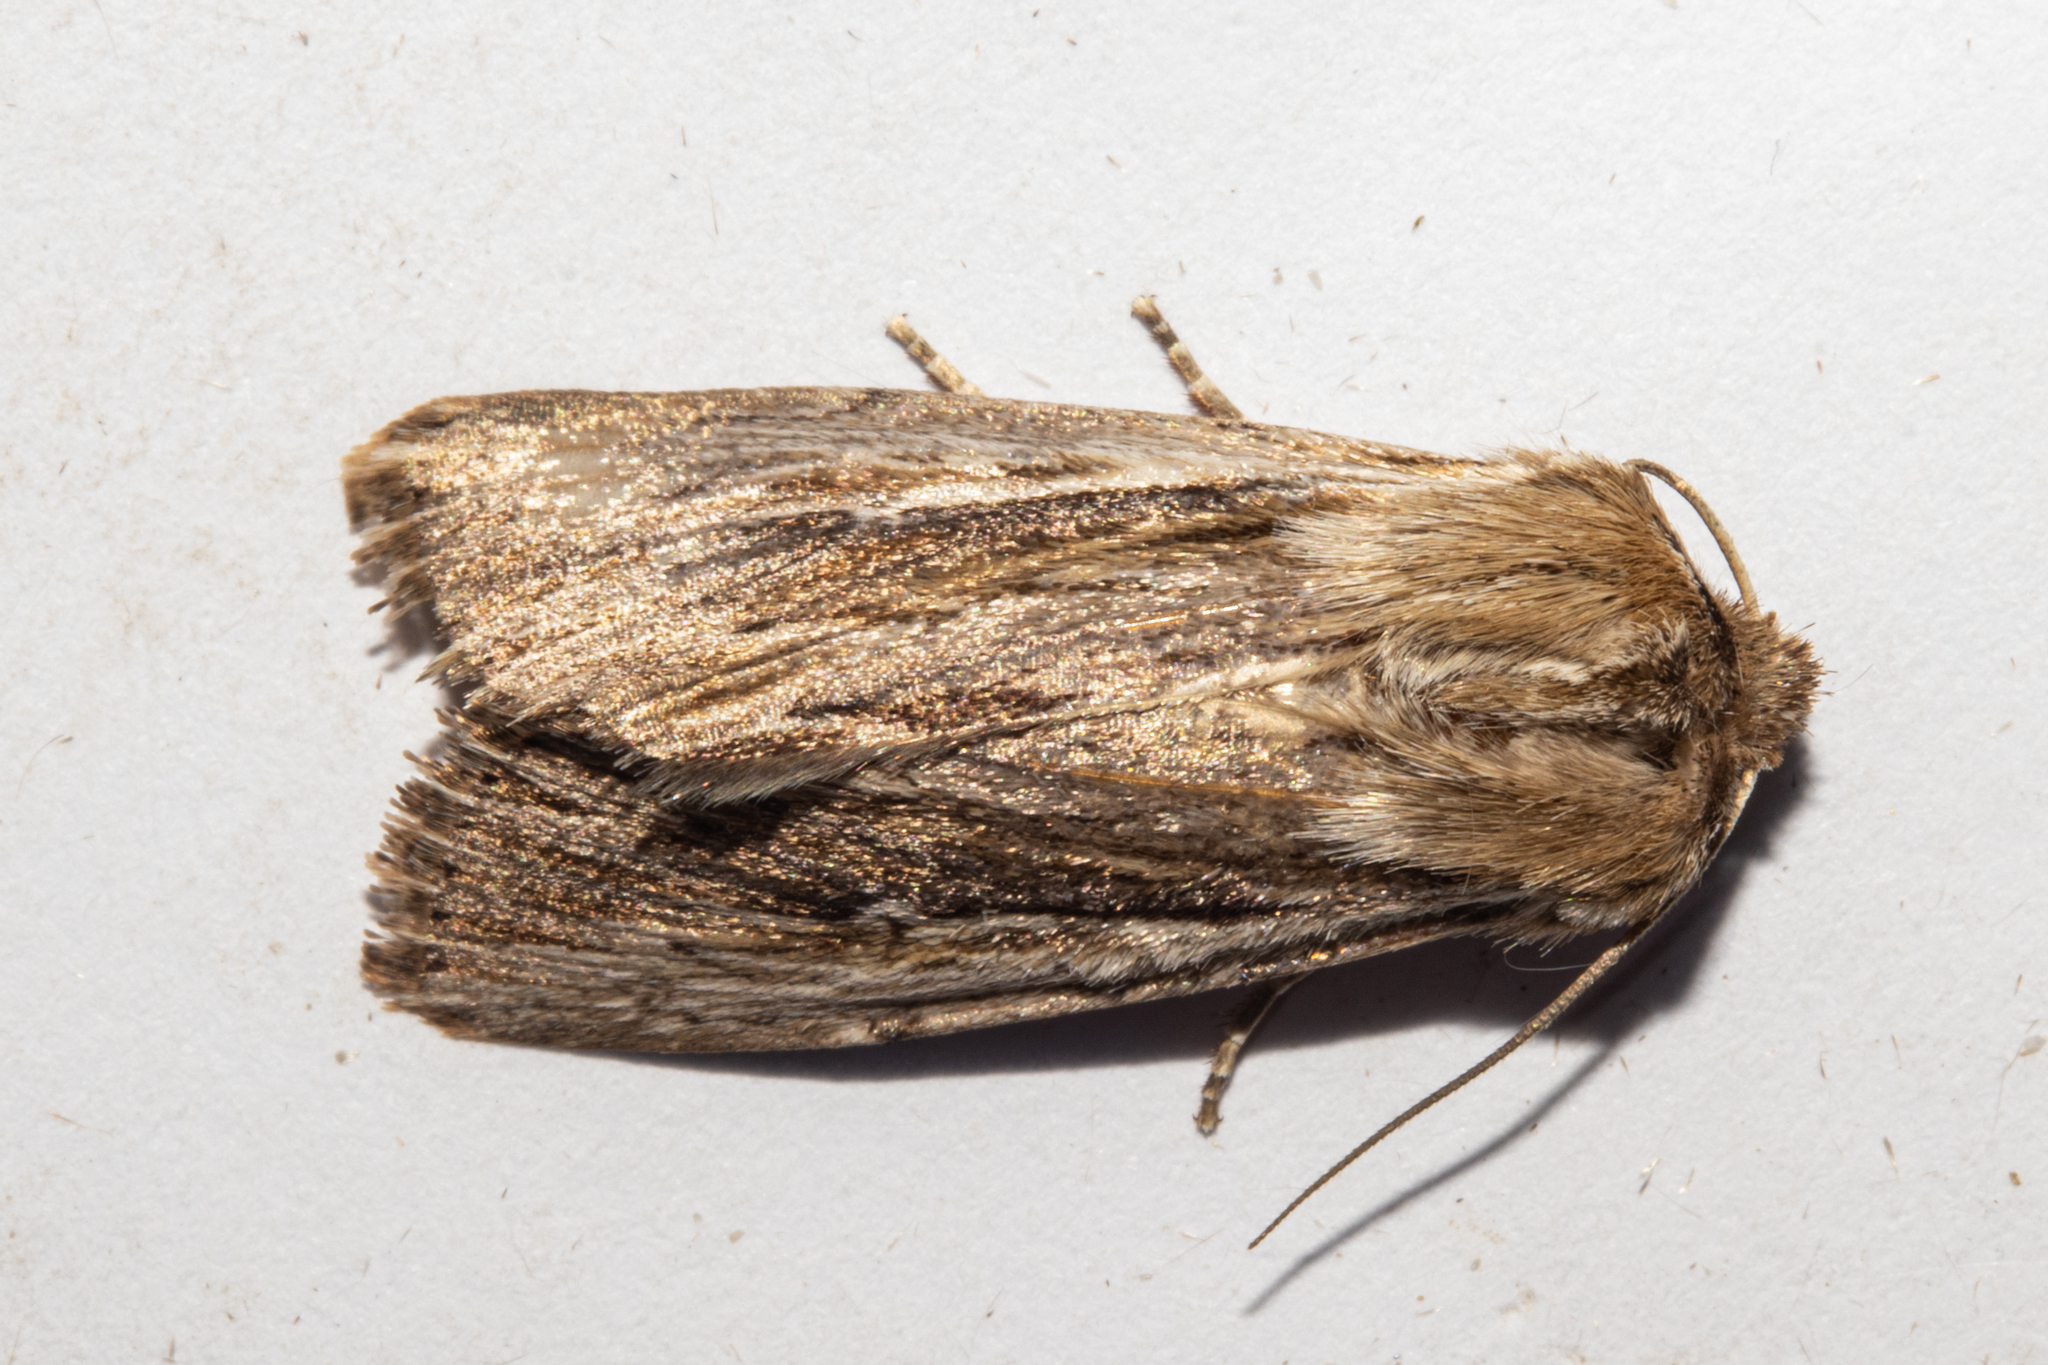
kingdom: Animalia
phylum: Arthropoda
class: Insecta
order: Lepidoptera
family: Noctuidae
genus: Persectania
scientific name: Persectania aversa
